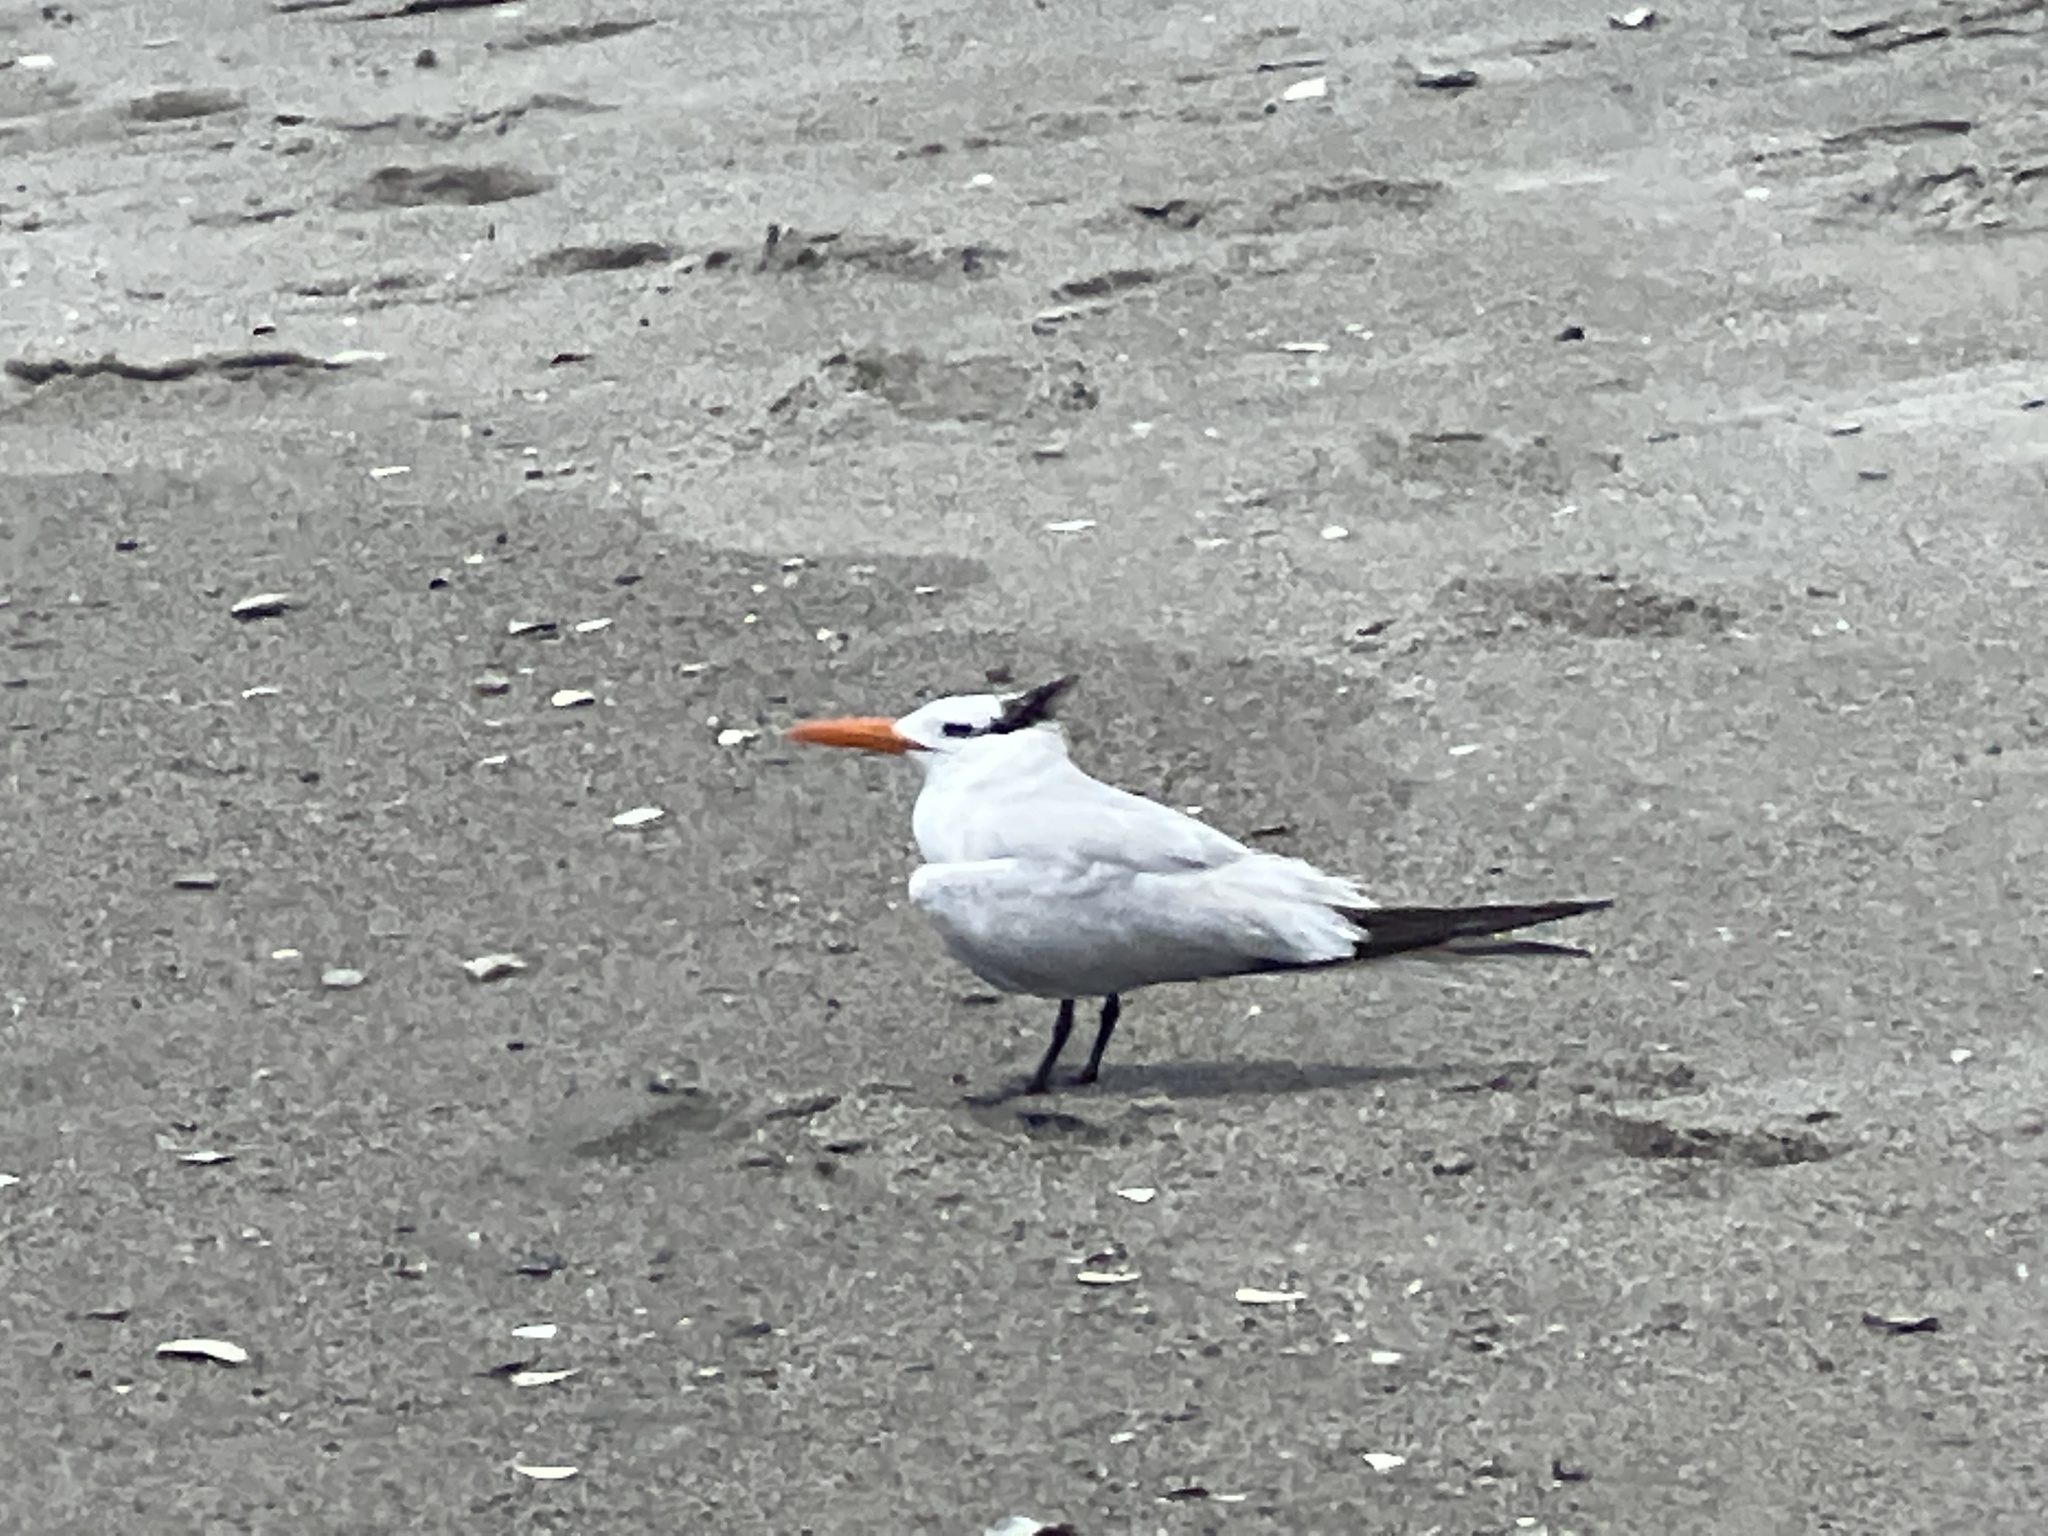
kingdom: Animalia
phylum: Chordata
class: Aves
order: Charadriiformes
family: Laridae
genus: Thalasseus
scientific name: Thalasseus maximus
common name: Royal tern
